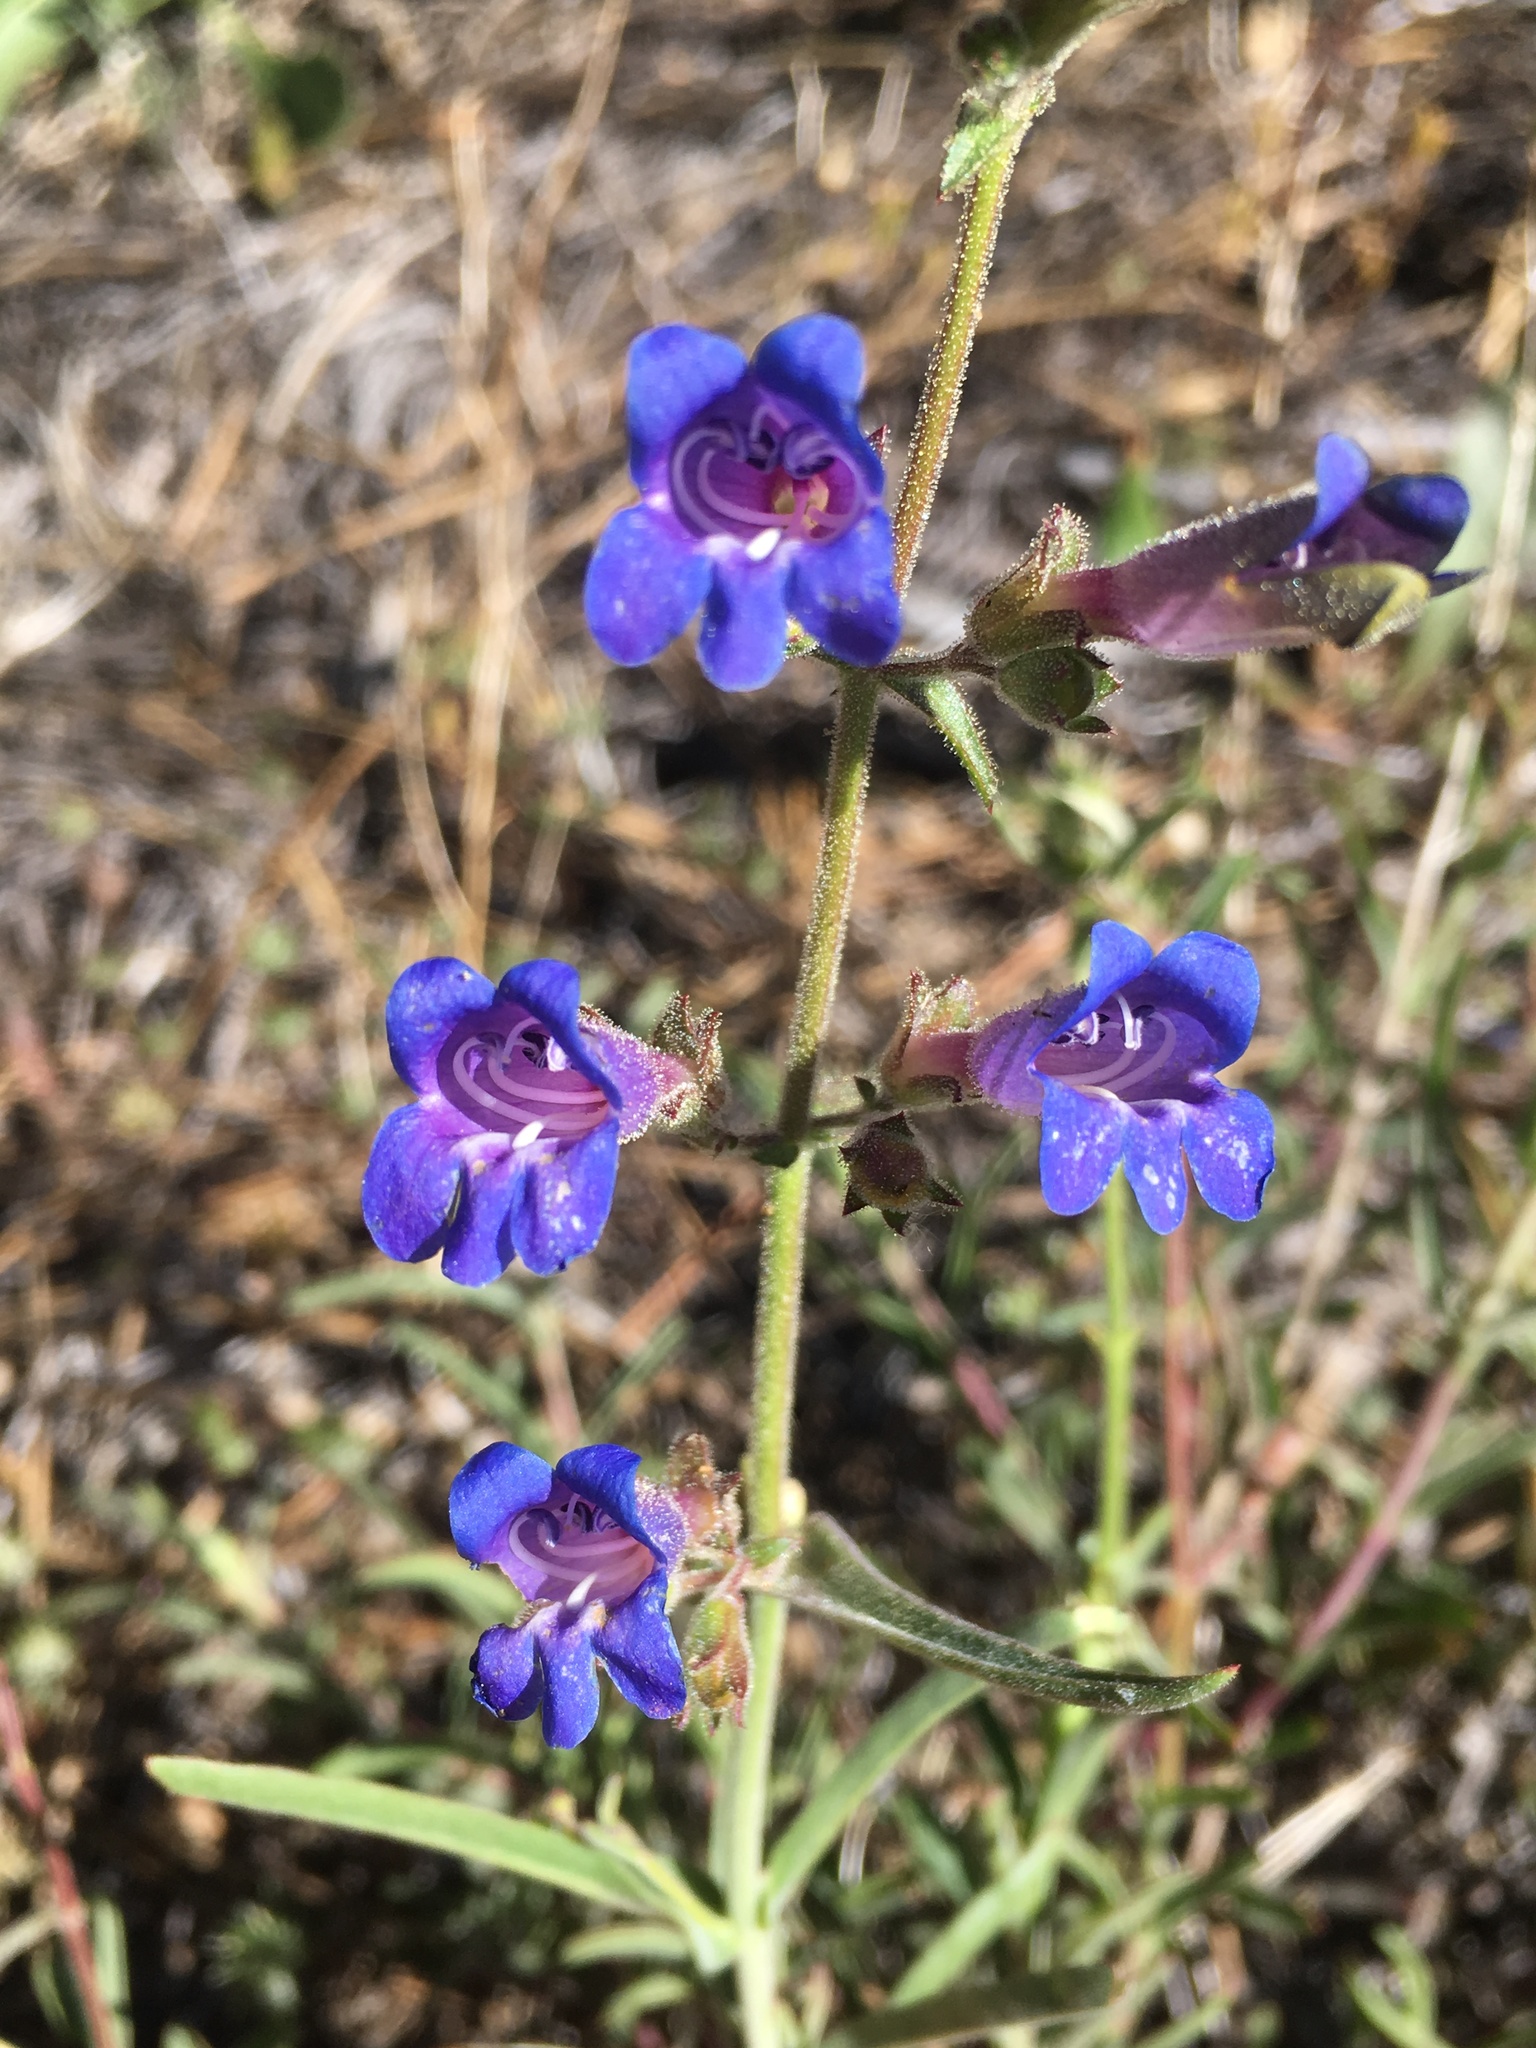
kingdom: Plantae
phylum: Tracheophyta
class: Magnoliopsida
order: Lamiales
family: Plantaginaceae
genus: Penstemon
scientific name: Penstemon roezlii
